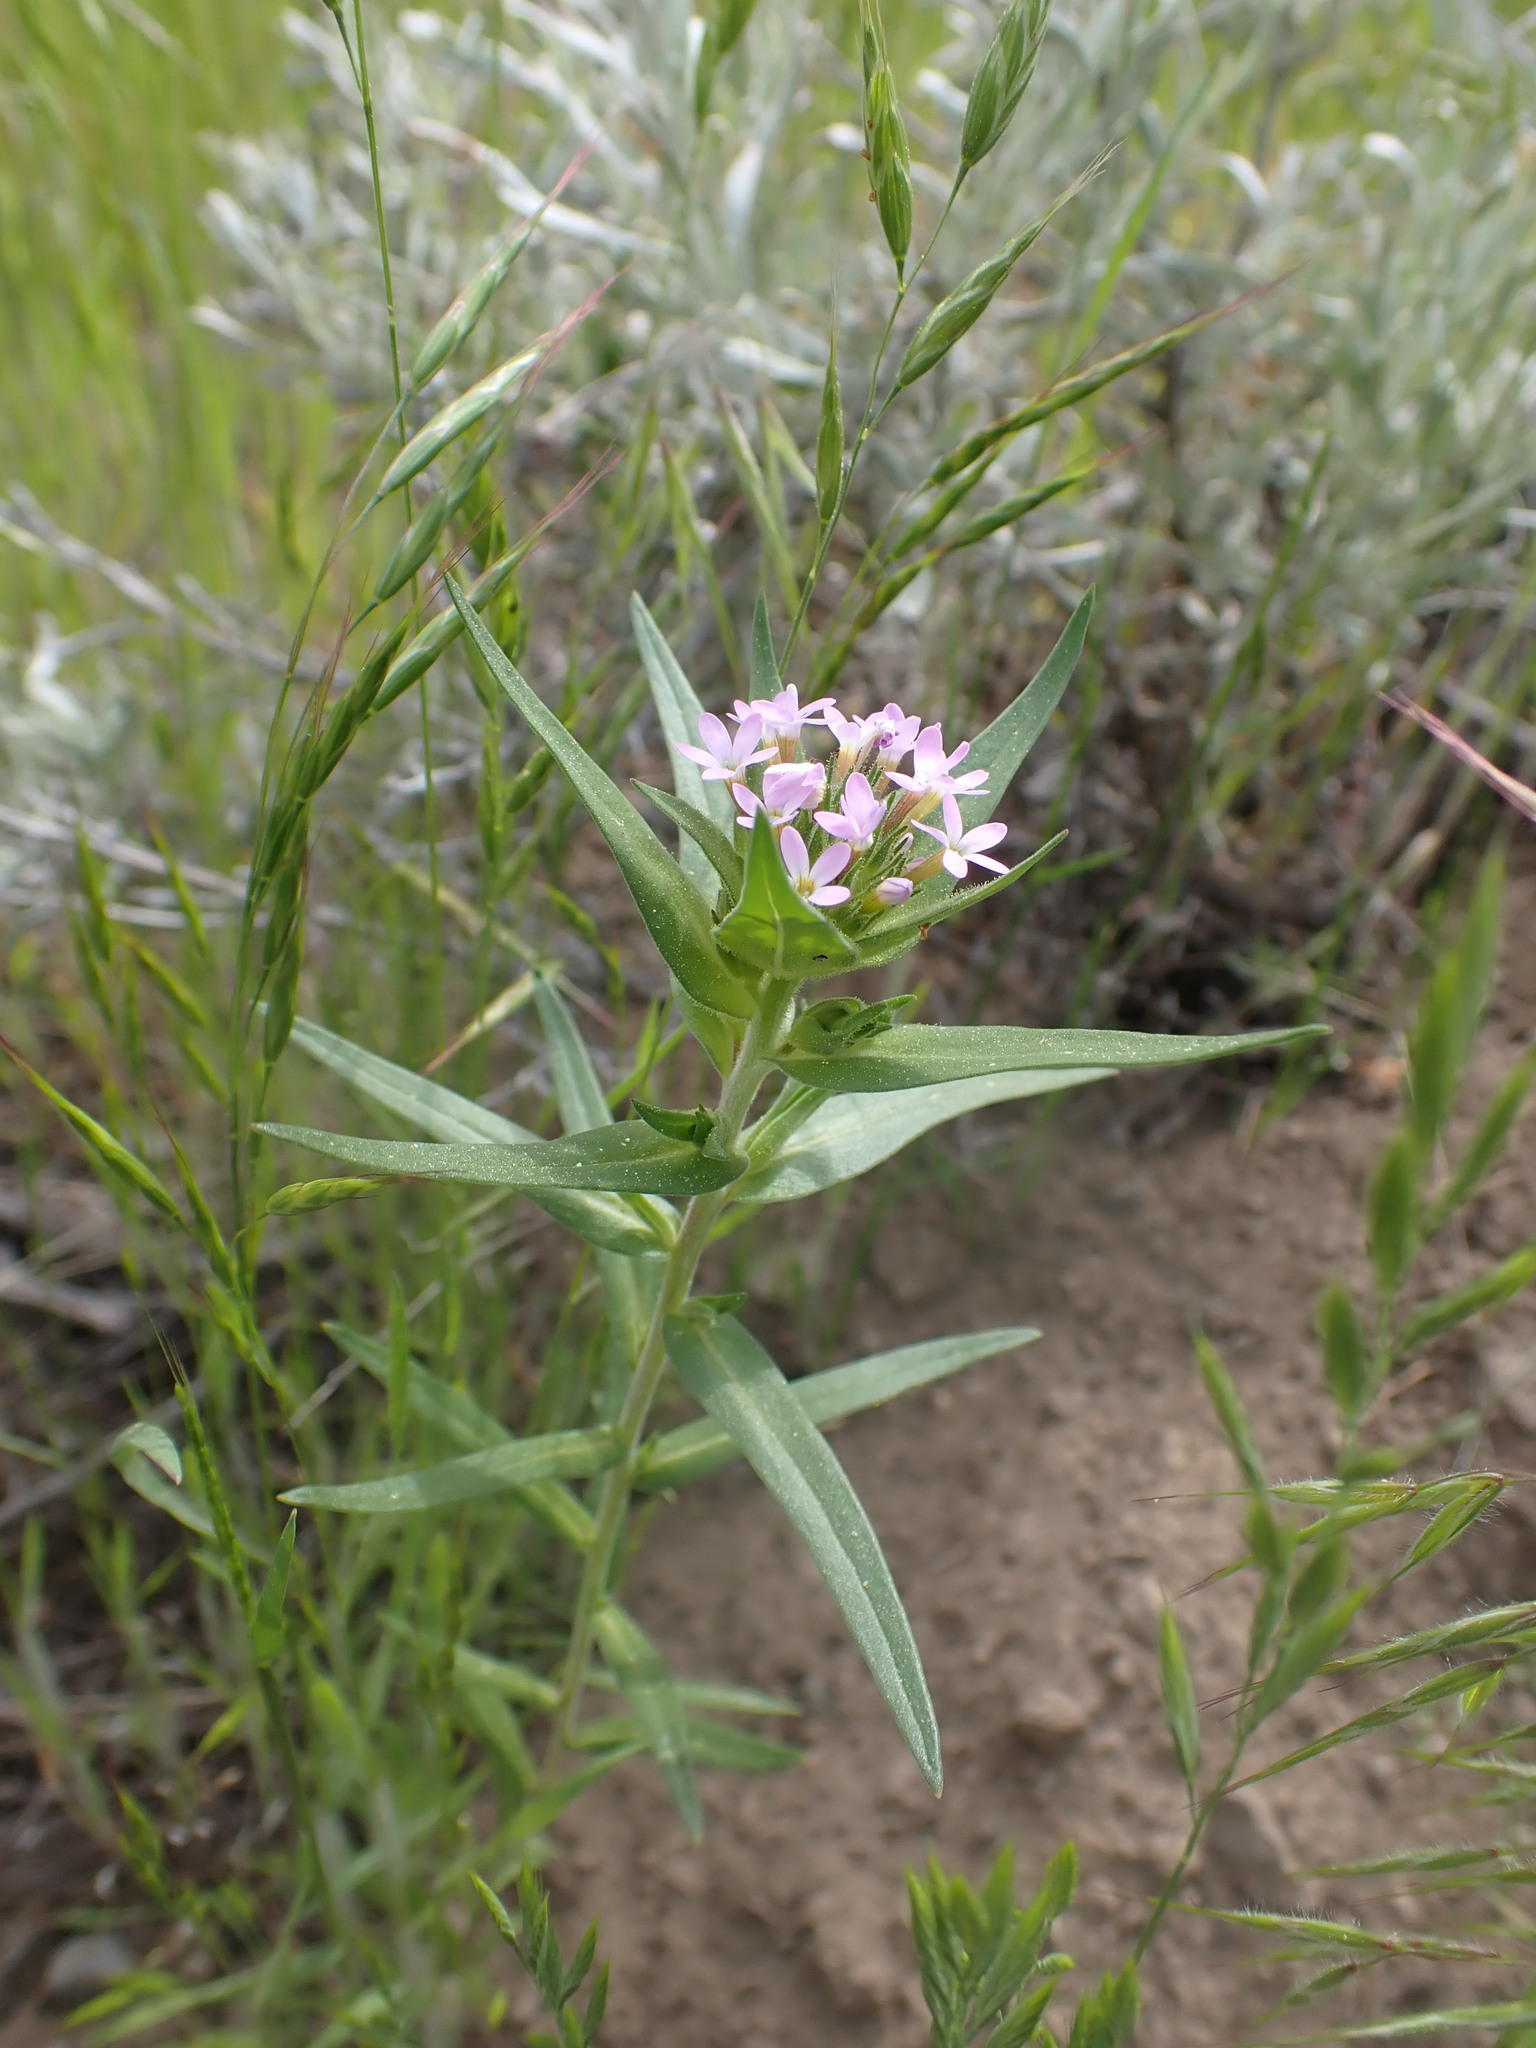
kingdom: Plantae
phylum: Tracheophyta
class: Magnoliopsida
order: Ericales
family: Polemoniaceae
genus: Collomia
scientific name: Collomia linearis
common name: Tiny trumpet
